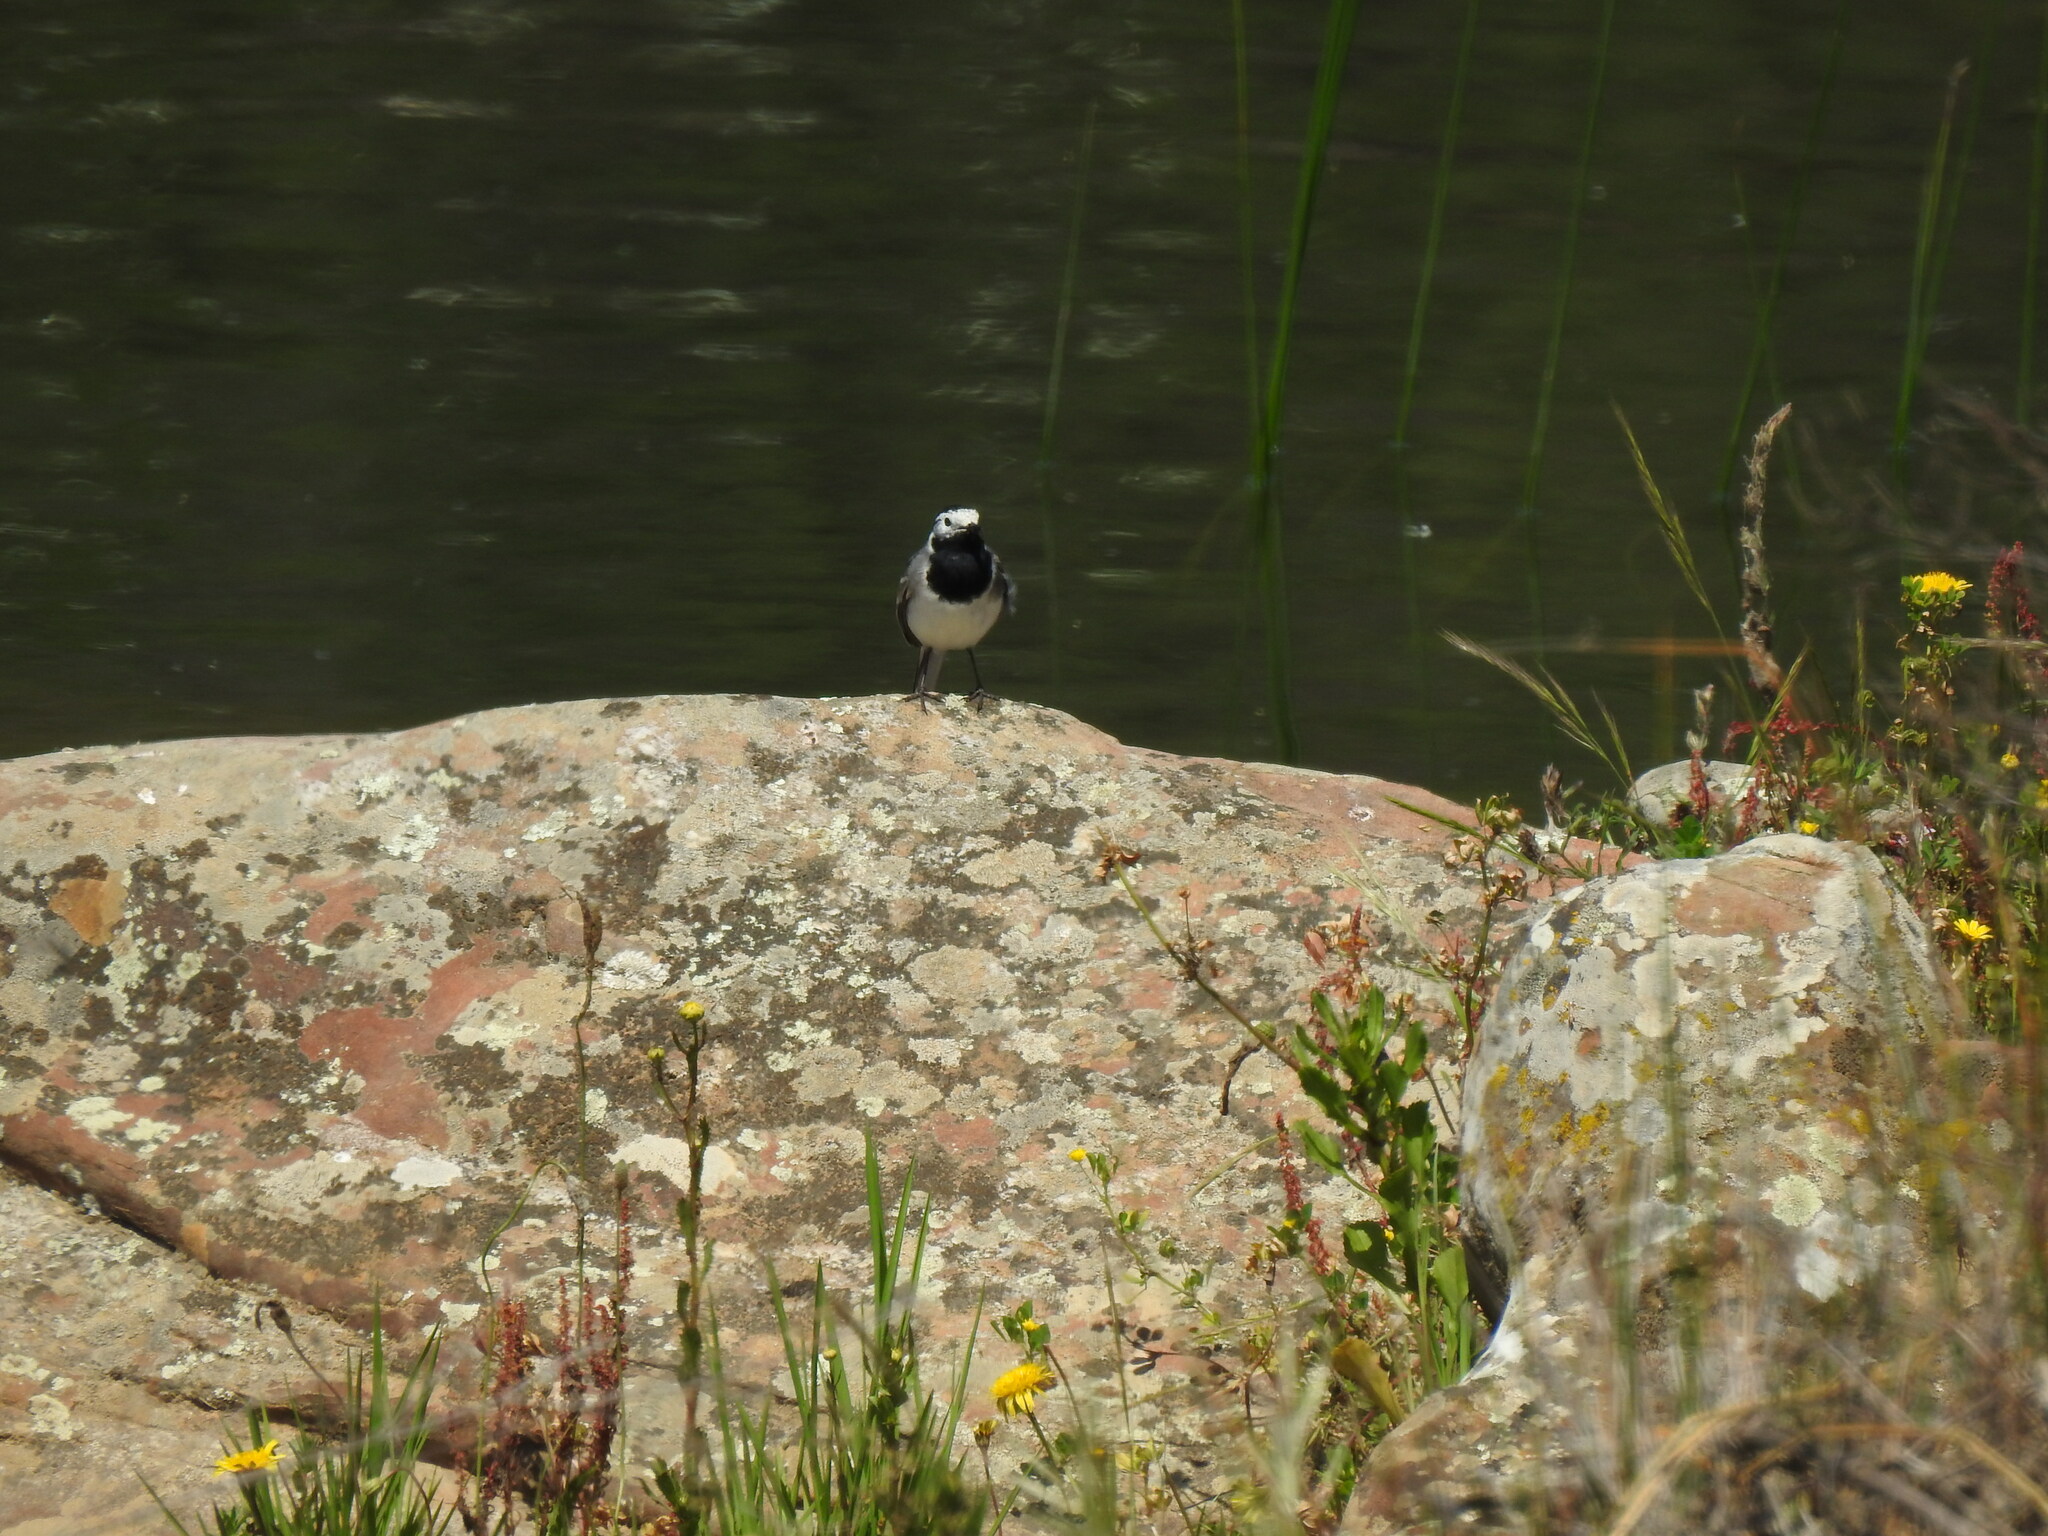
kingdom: Animalia
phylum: Chordata
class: Aves
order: Passeriformes
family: Motacillidae
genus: Motacilla
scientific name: Motacilla alba
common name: White wagtail
